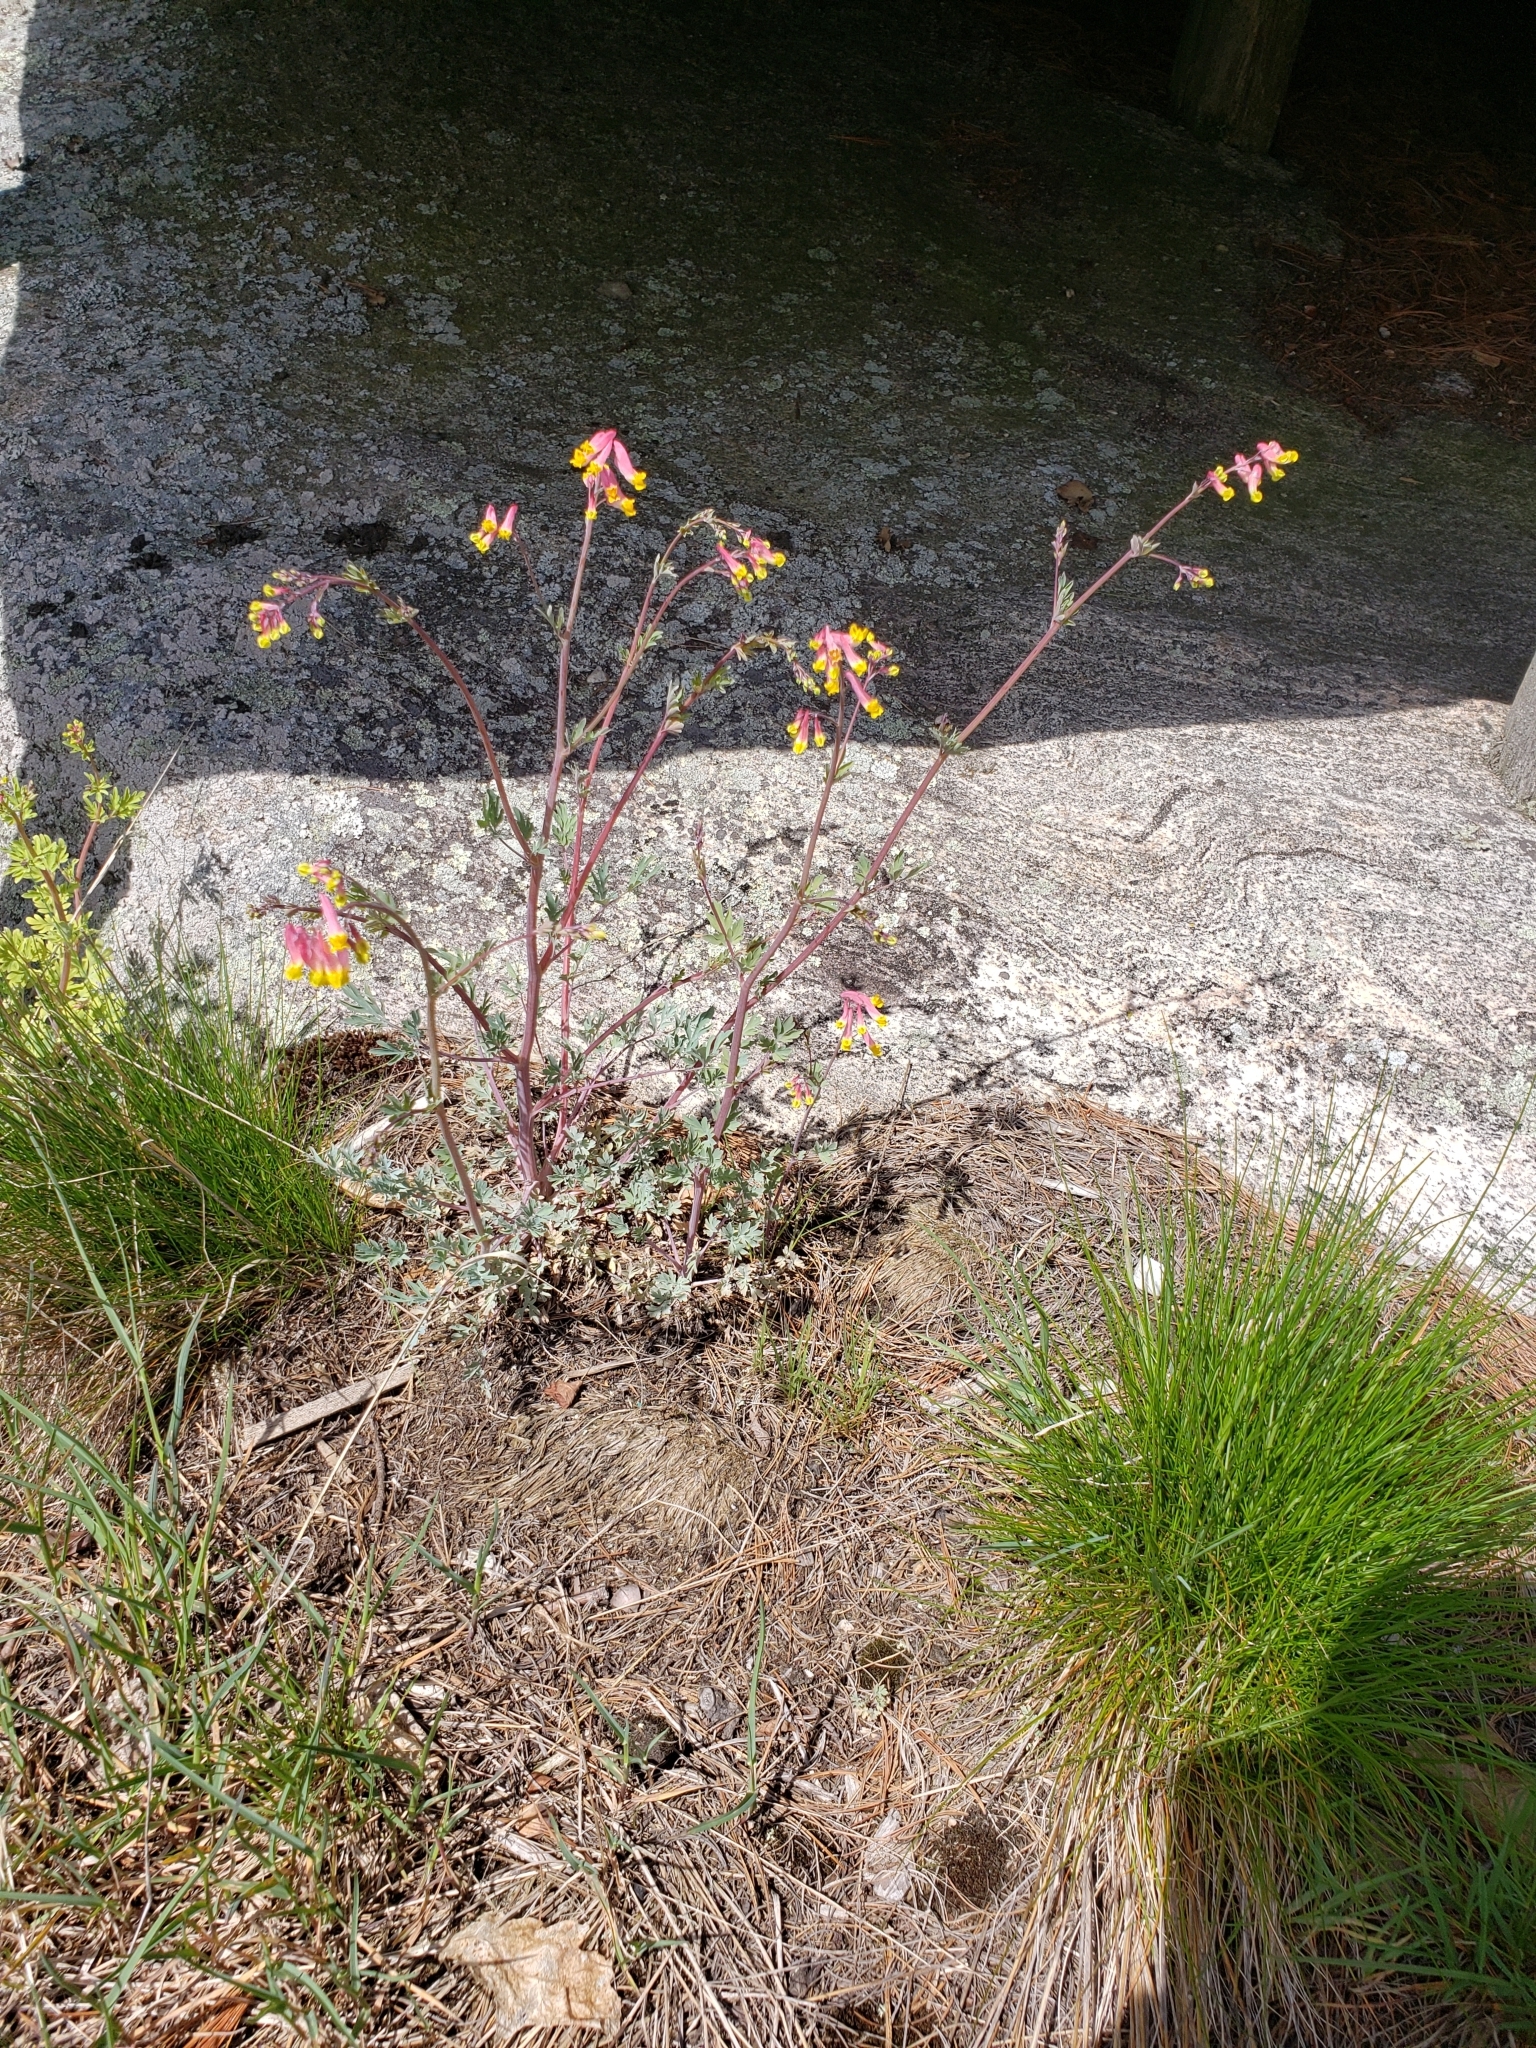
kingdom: Plantae
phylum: Tracheophyta
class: Magnoliopsida
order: Ranunculales
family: Papaveraceae
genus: Capnoides
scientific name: Capnoides sempervirens
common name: Rock harlequin
